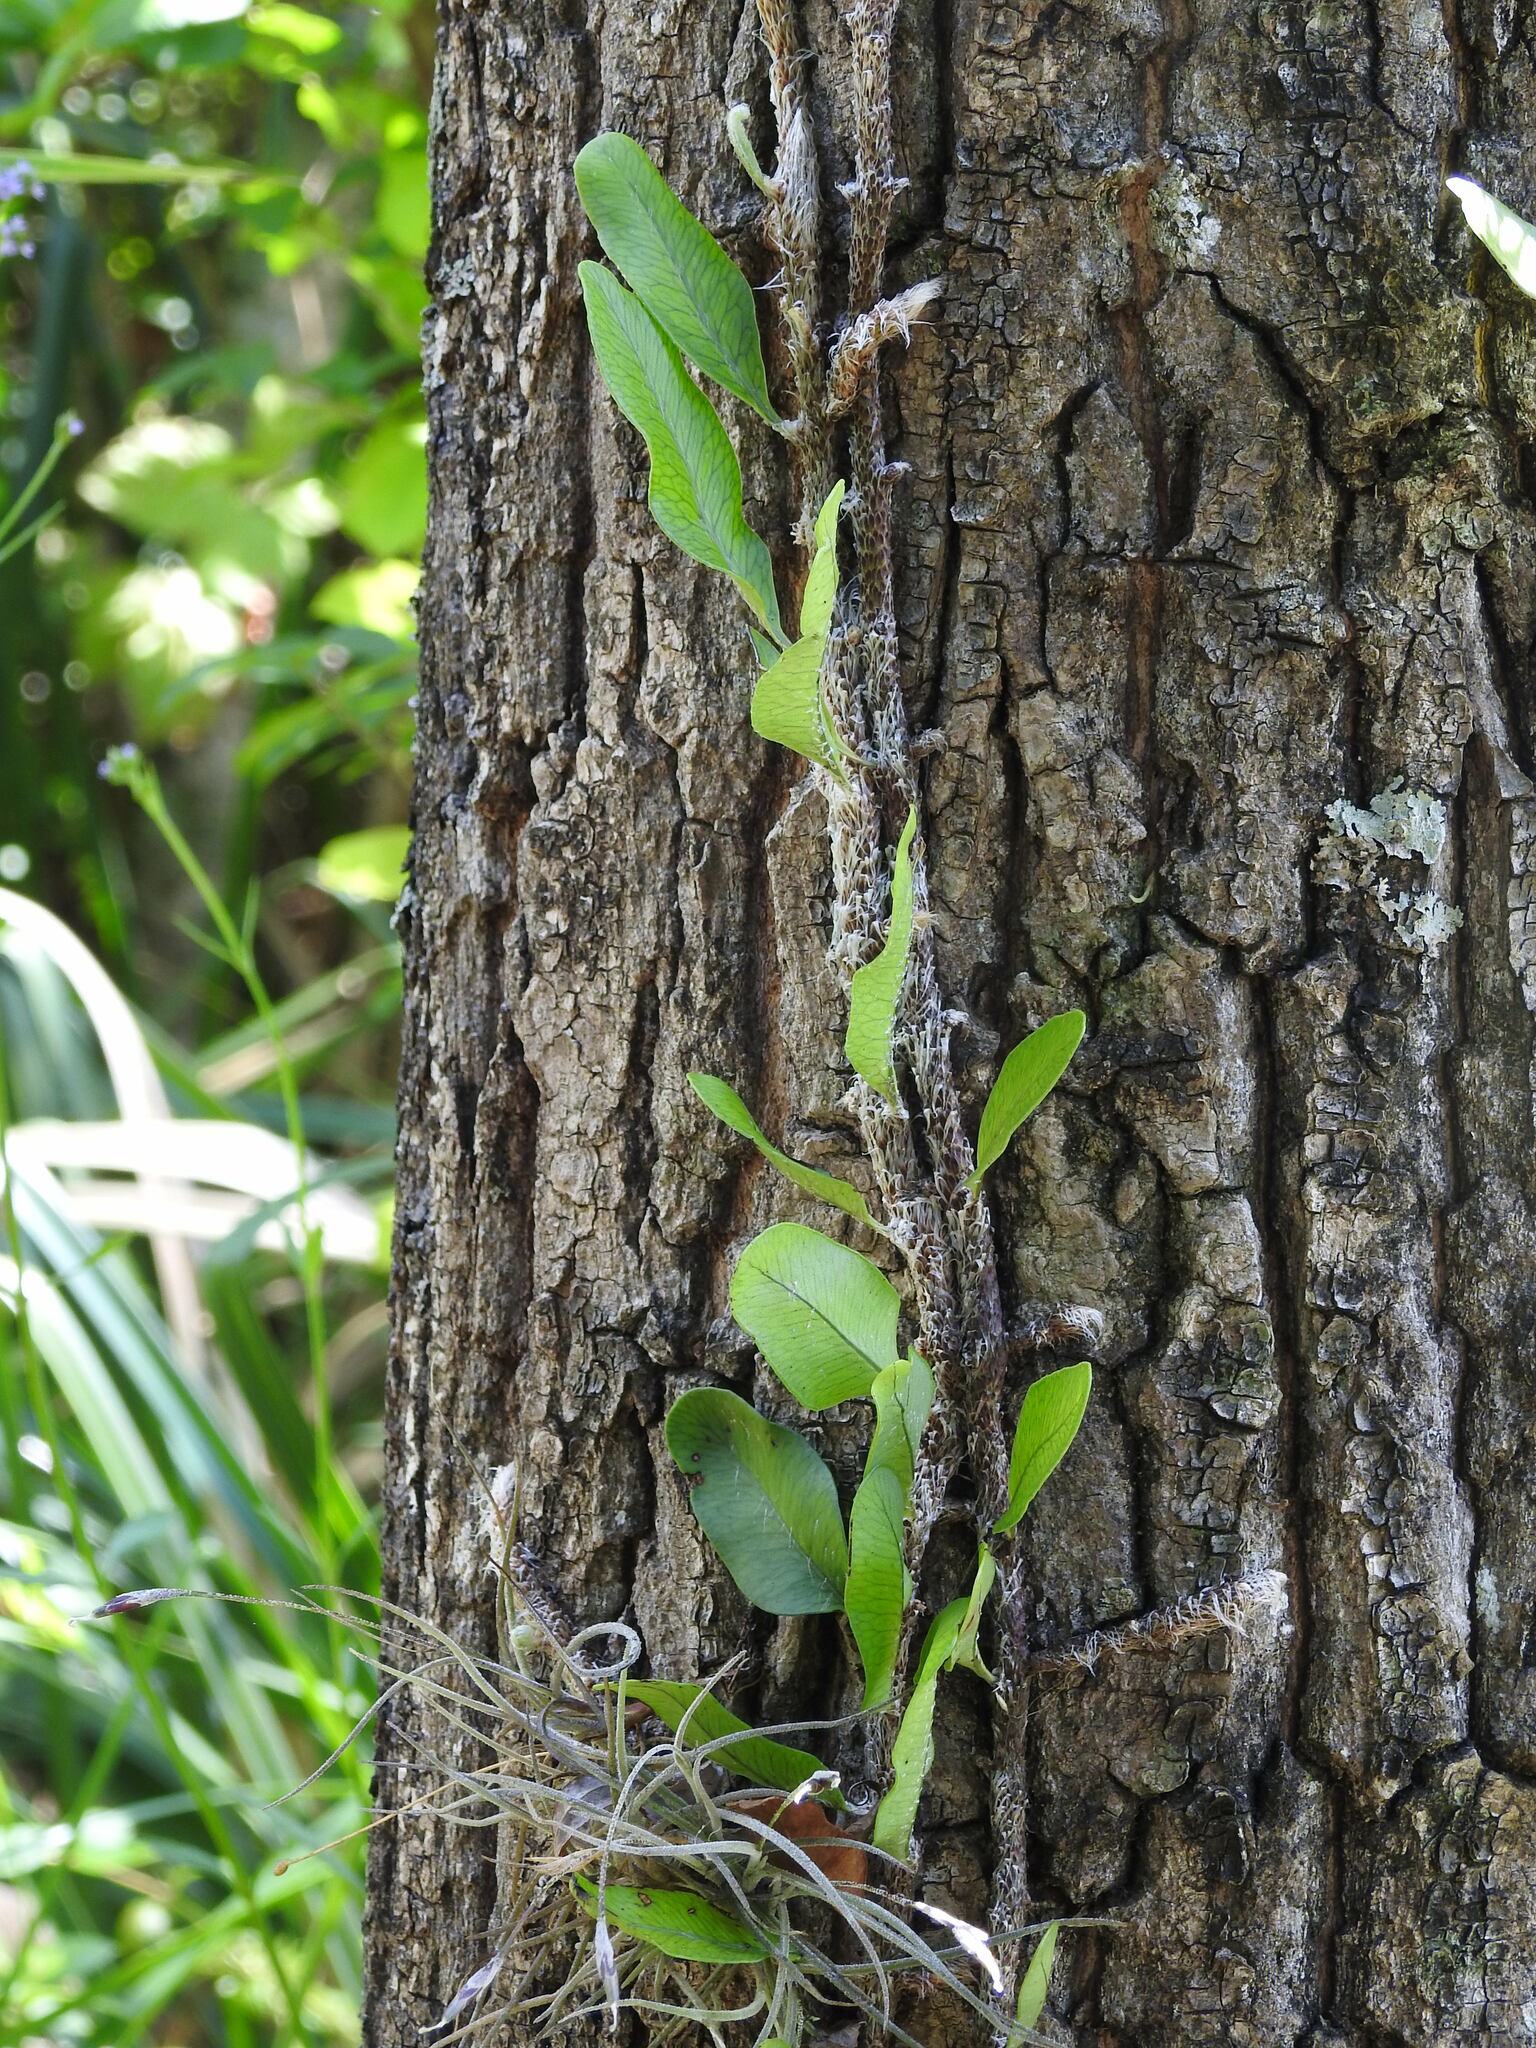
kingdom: Plantae
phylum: Tracheophyta
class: Polypodiopsida
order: Polypodiales
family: Polypodiaceae
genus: Microgramma
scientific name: Microgramma mortoniana
